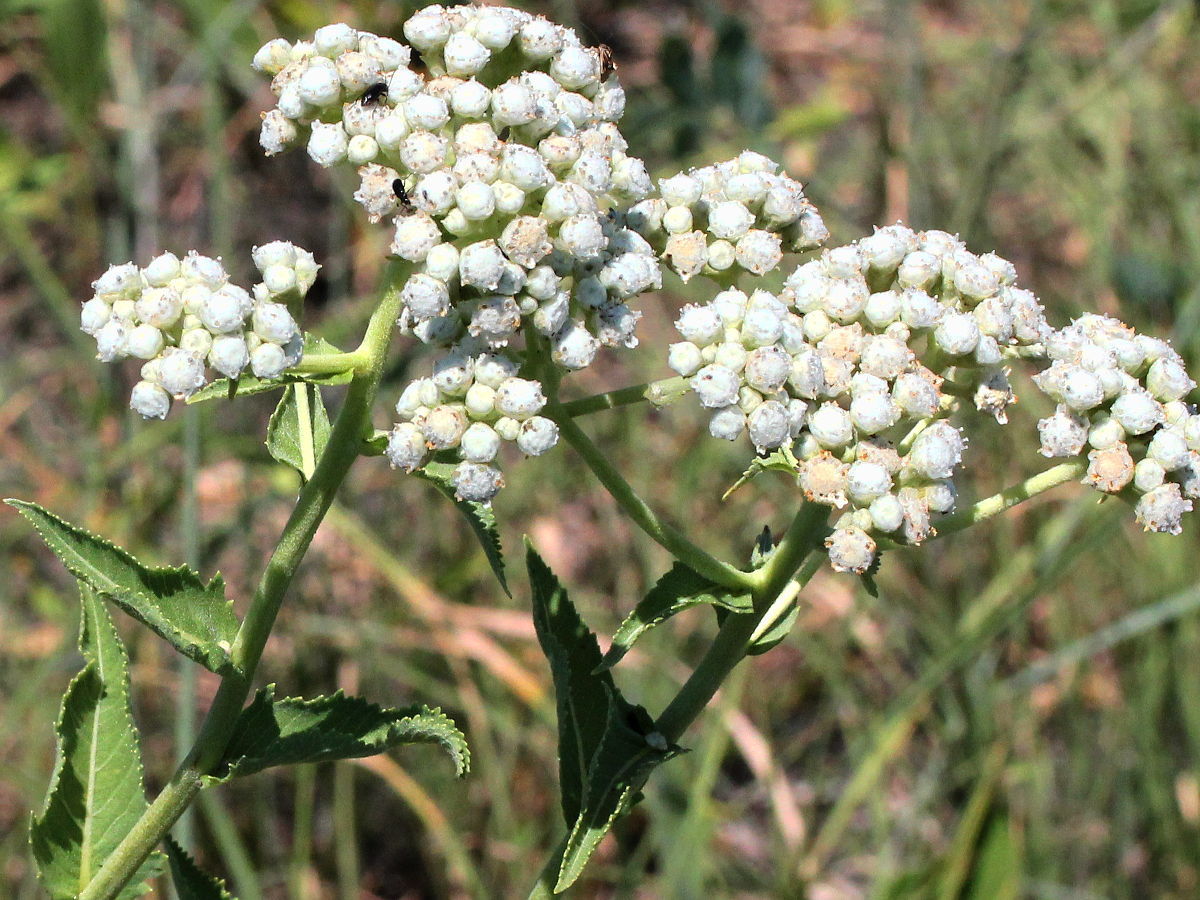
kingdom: Plantae
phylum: Tracheophyta
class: Magnoliopsida
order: Asterales
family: Asteraceae
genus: Parthenium
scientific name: Parthenium integrifolium
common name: American feverfew
